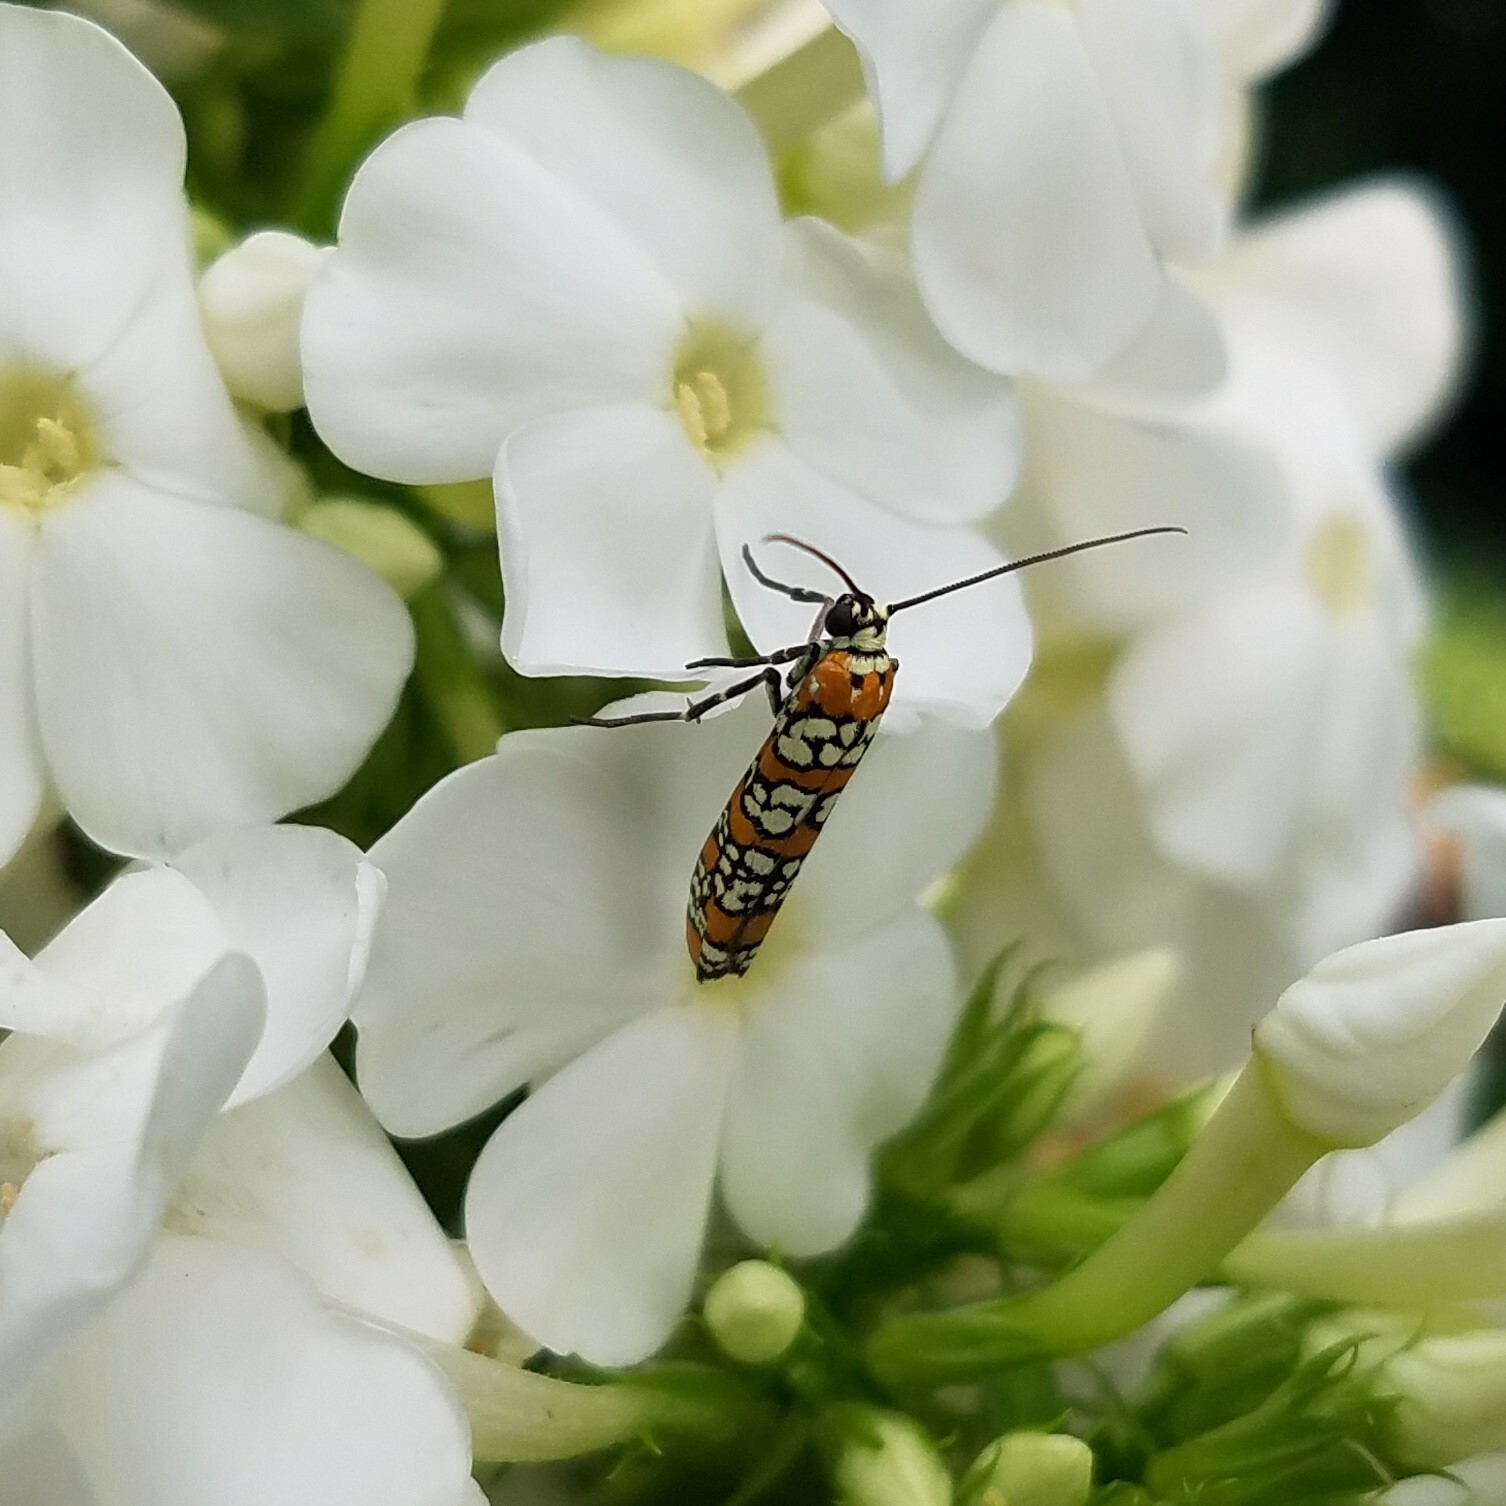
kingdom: Animalia
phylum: Arthropoda
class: Insecta
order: Lepidoptera
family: Attevidae
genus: Atteva
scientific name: Atteva punctella
